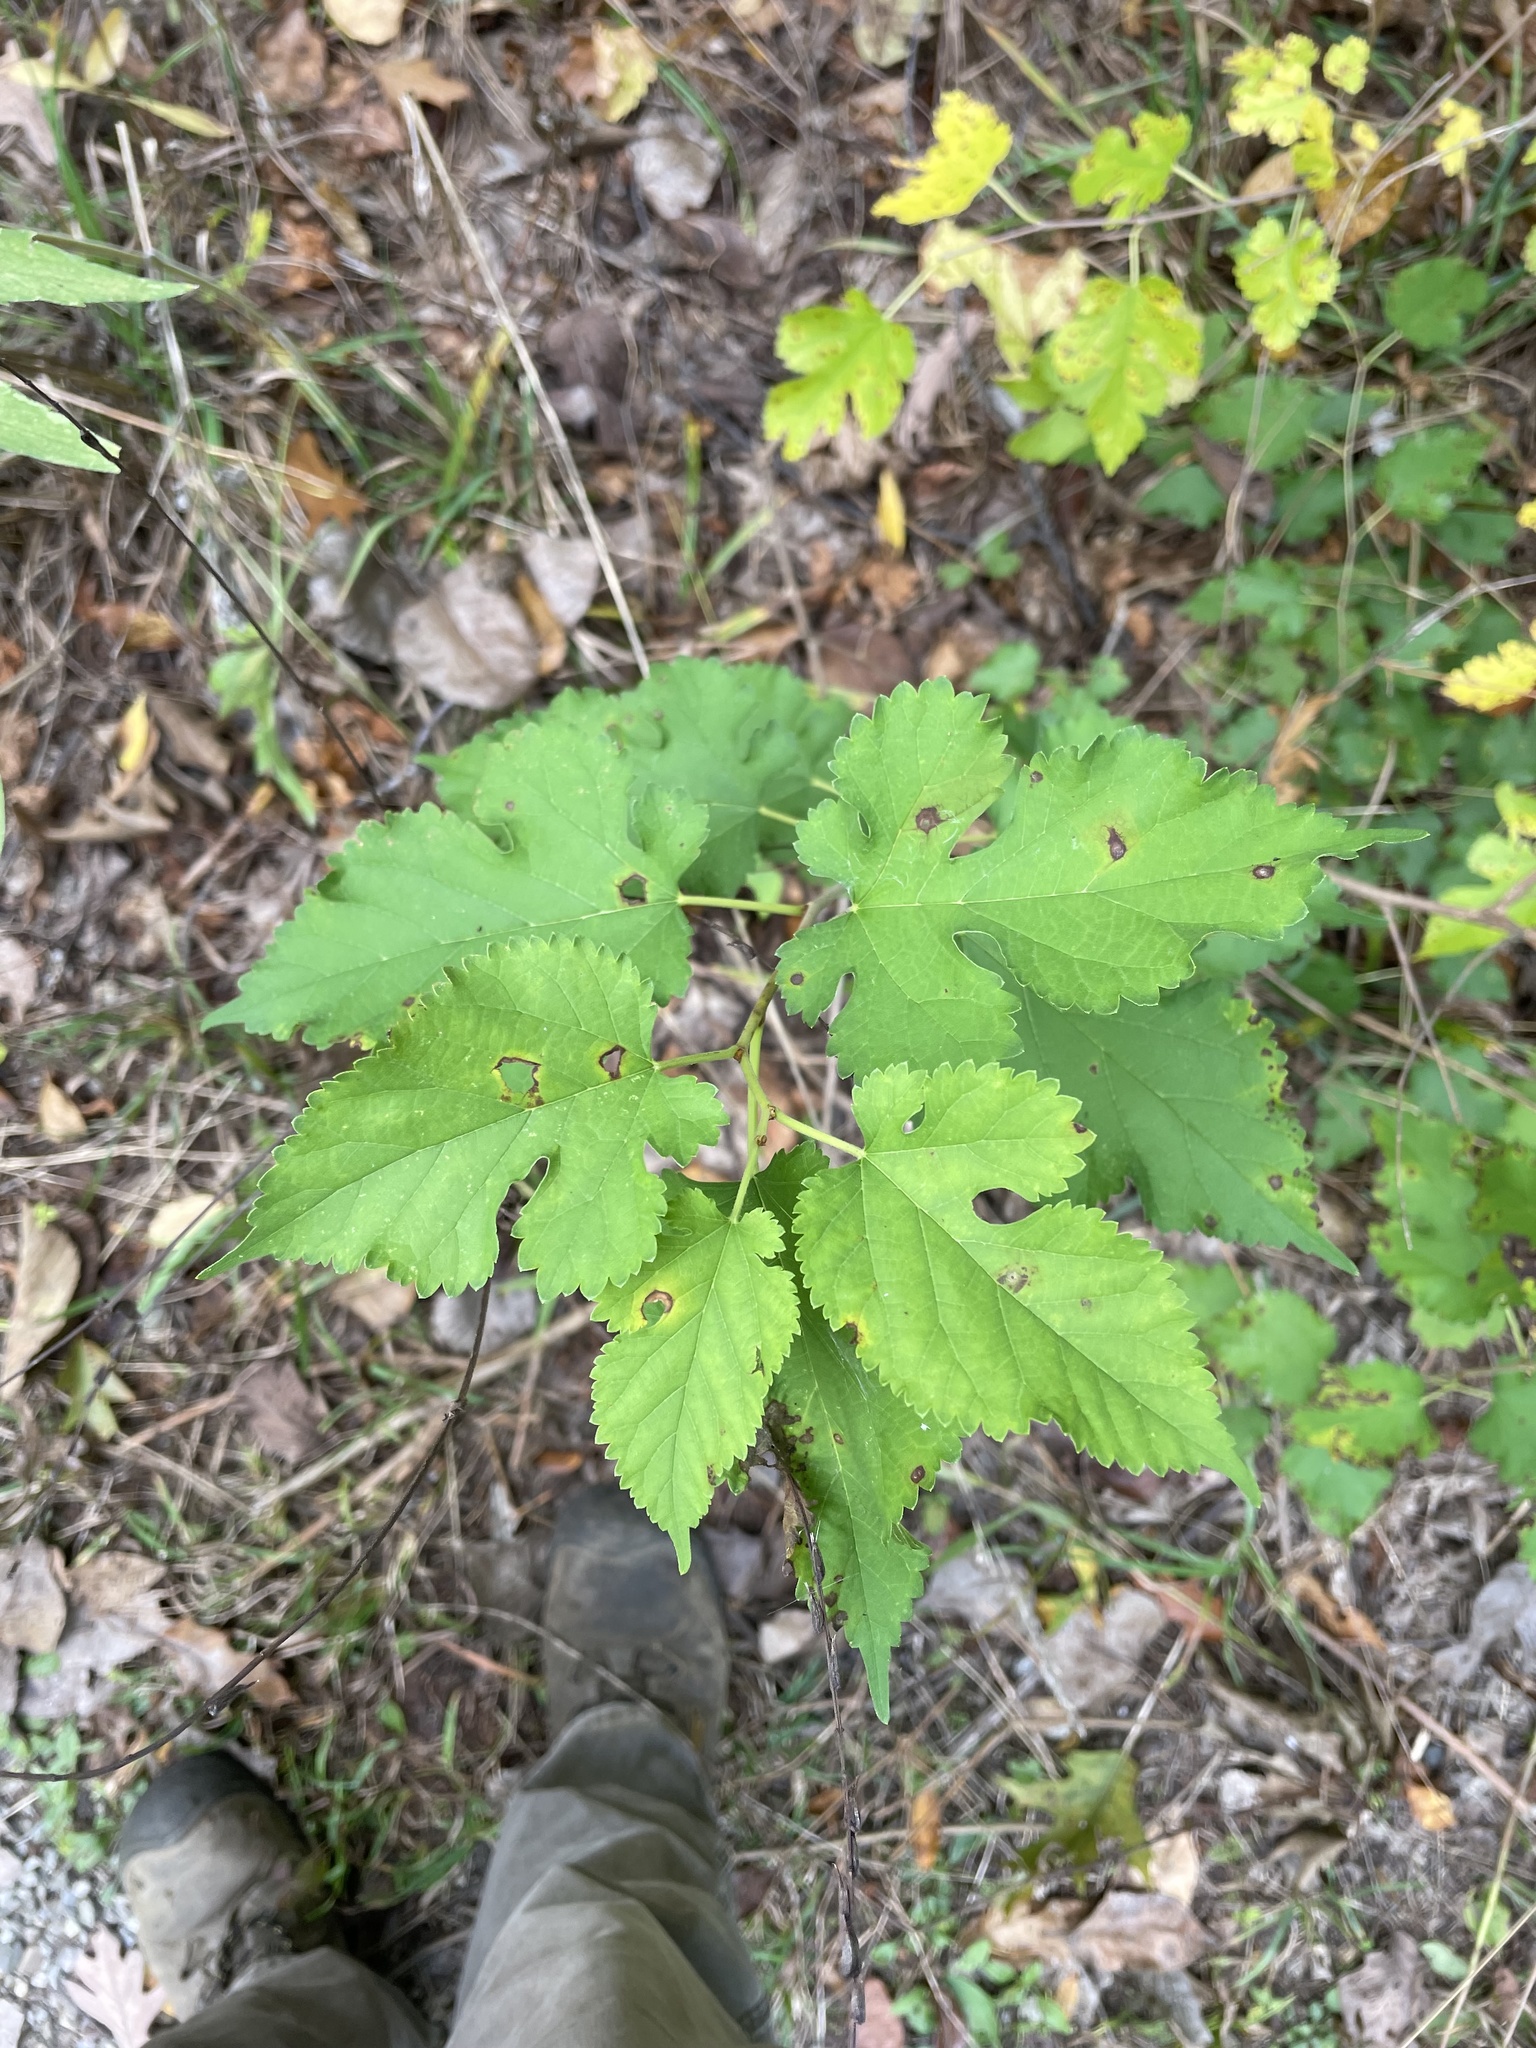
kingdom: Plantae
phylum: Tracheophyta
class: Magnoliopsida
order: Rosales
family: Moraceae
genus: Morus
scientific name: Morus alba
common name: White mulberry
